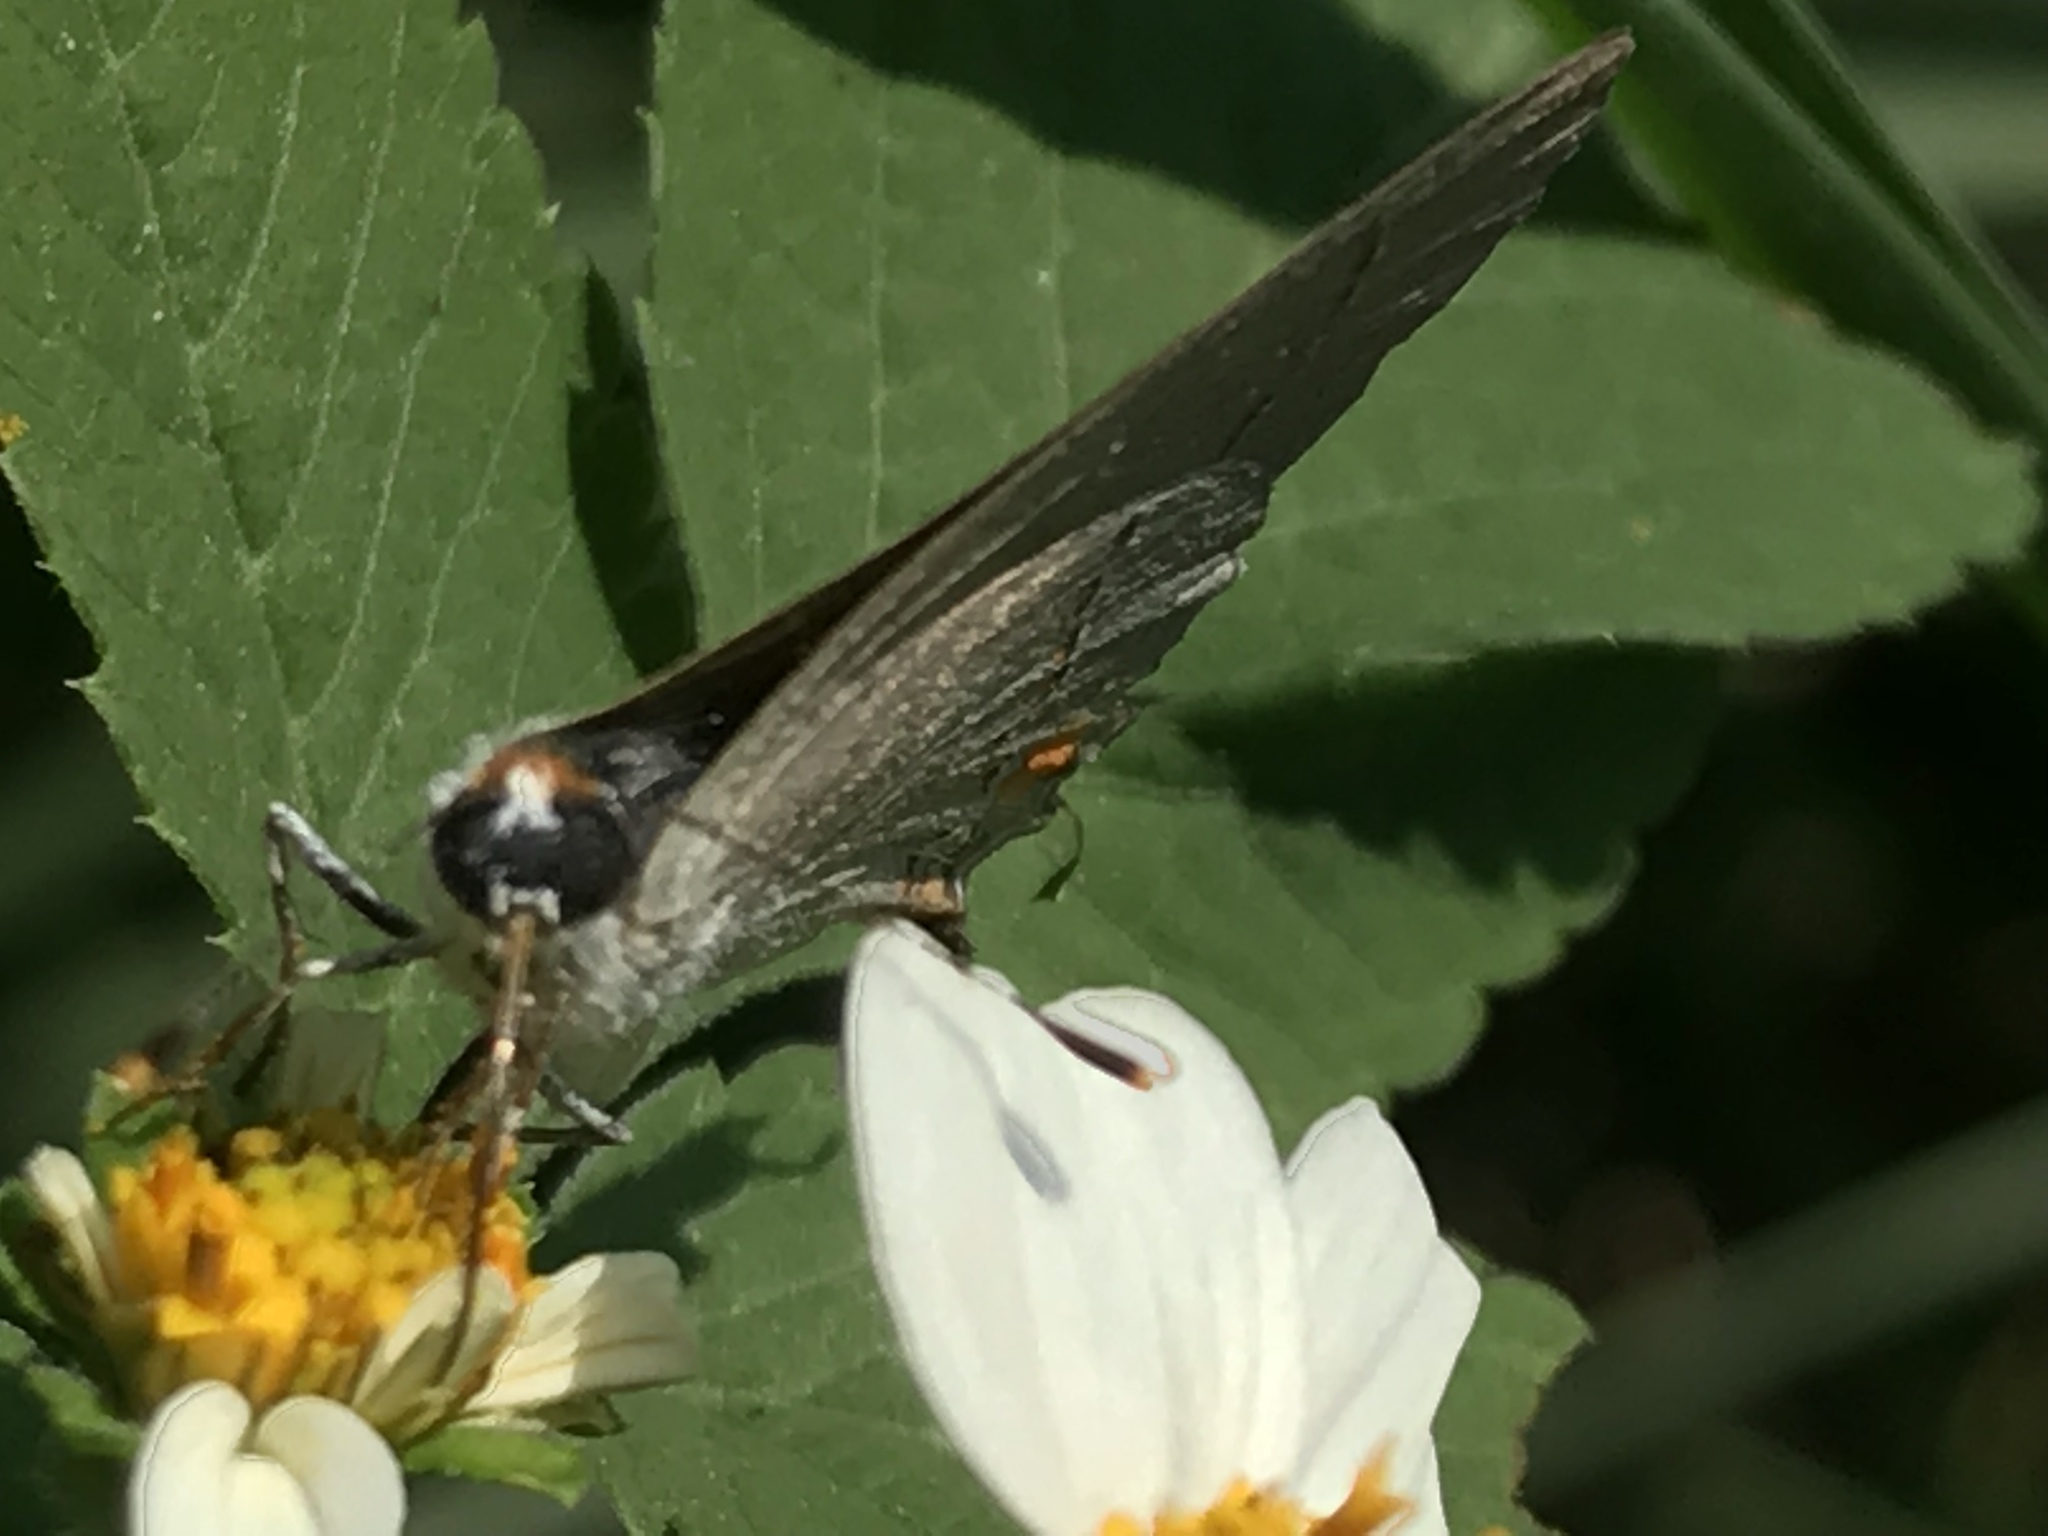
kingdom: Animalia
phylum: Arthropoda
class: Insecta
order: Lepidoptera
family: Lycaenidae
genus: Strymon
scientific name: Strymon melinus
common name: Gray hairstreak
